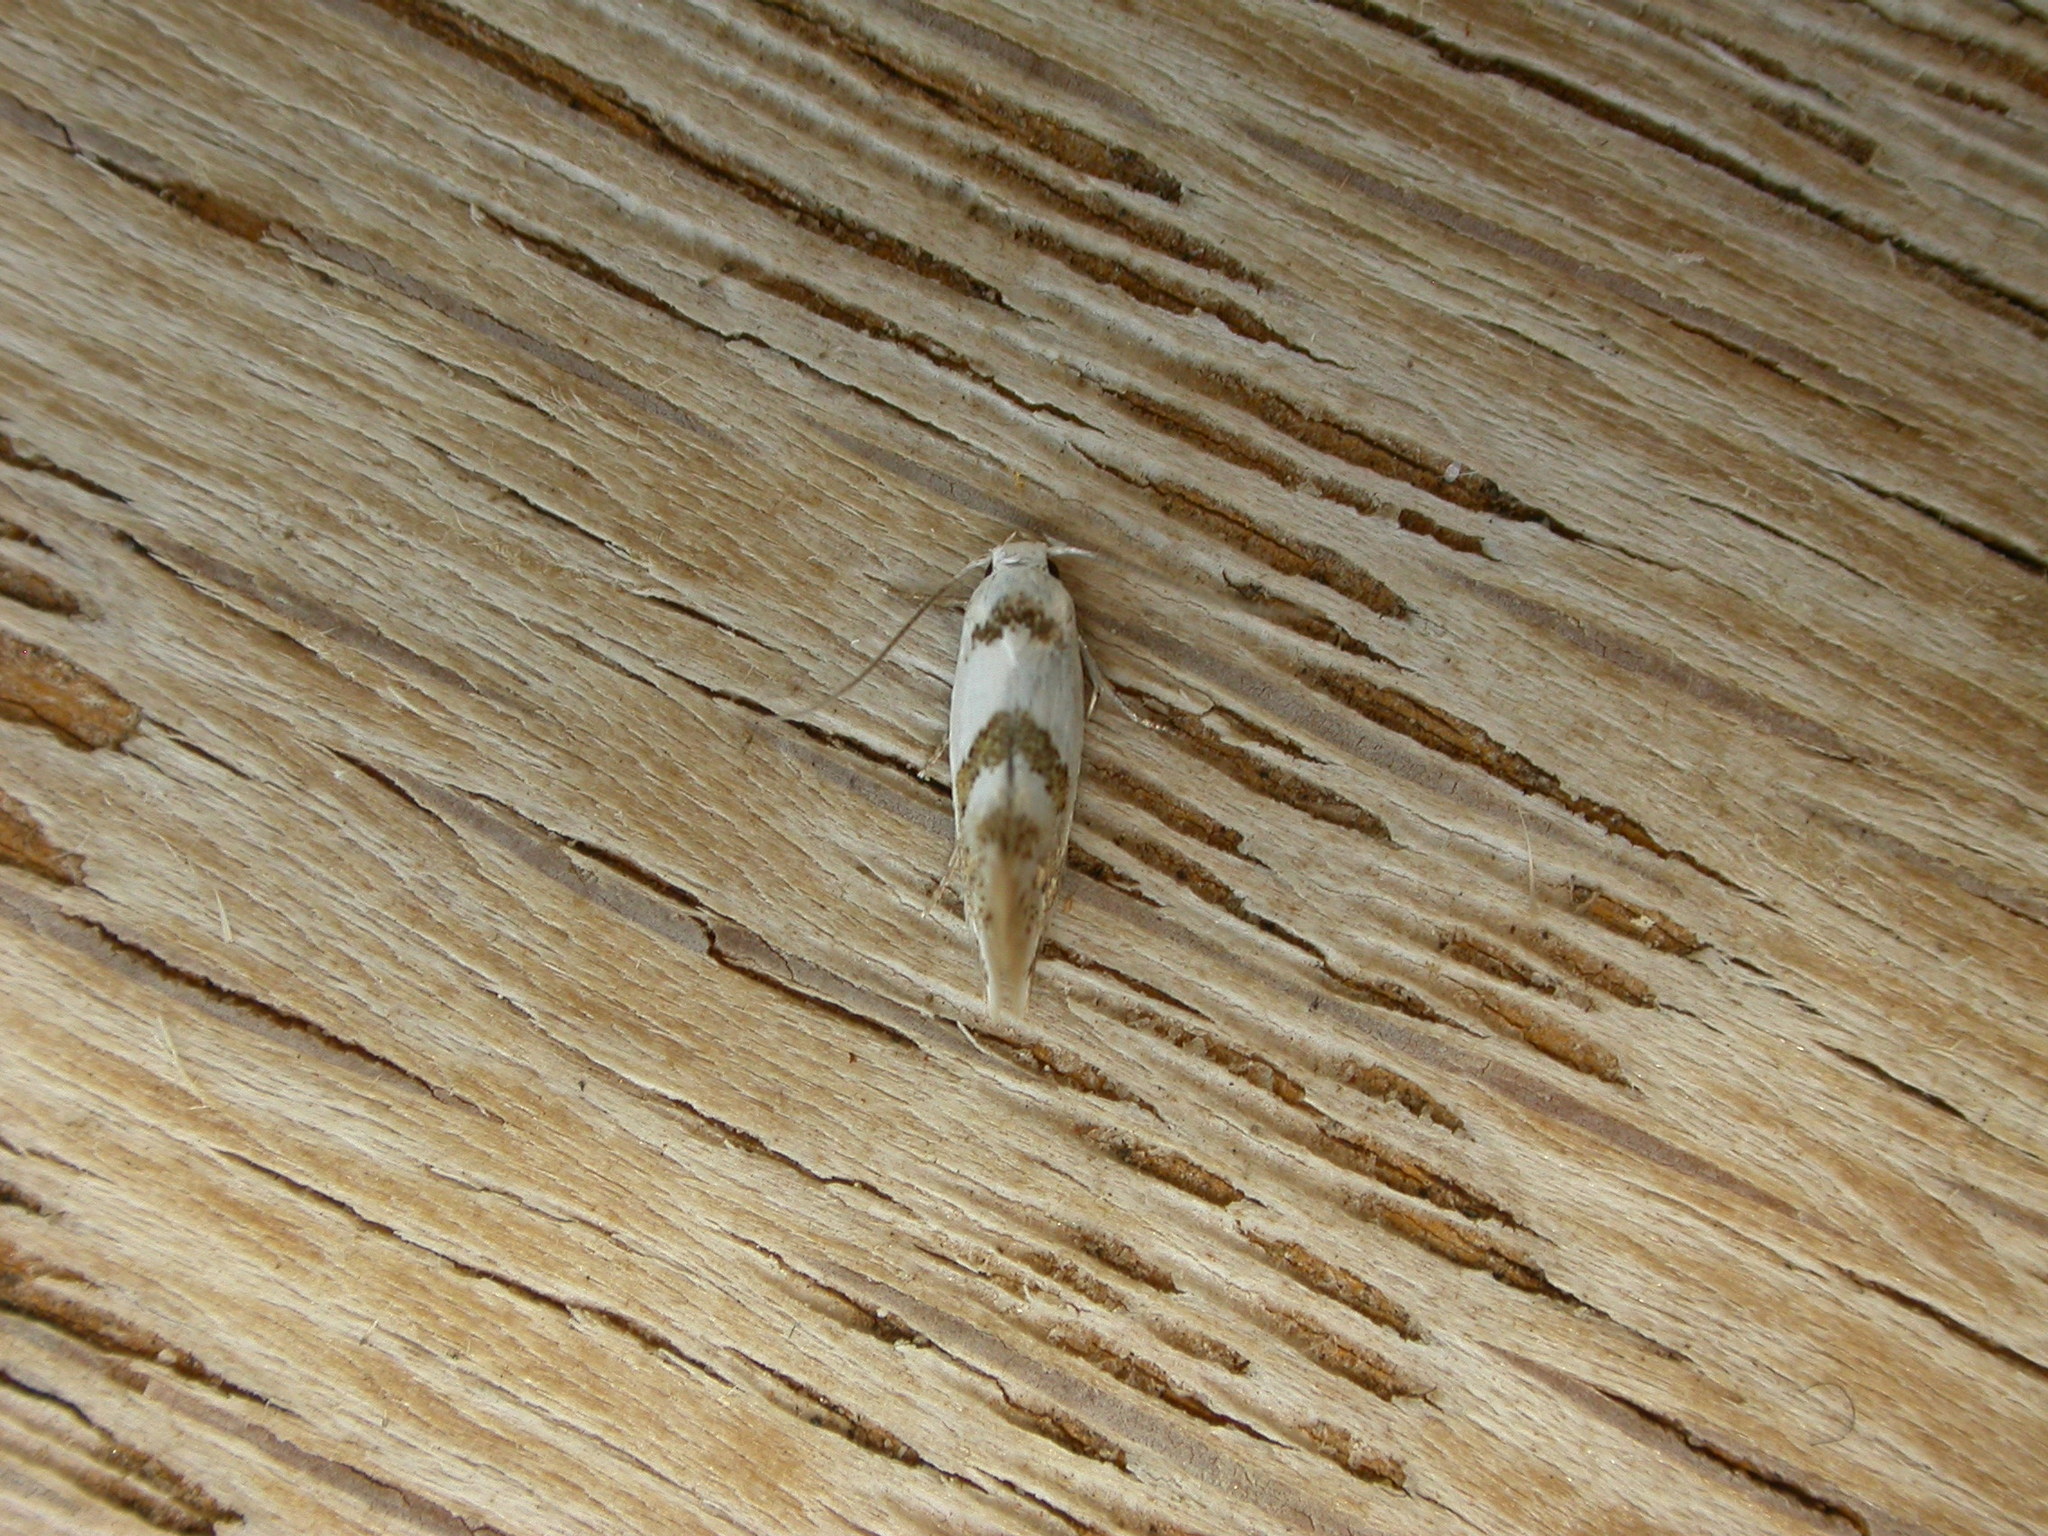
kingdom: Animalia
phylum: Arthropoda
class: Insecta
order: Lepidoptera
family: Oecophoridae
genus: Notodryas
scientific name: Notodryas vallata
